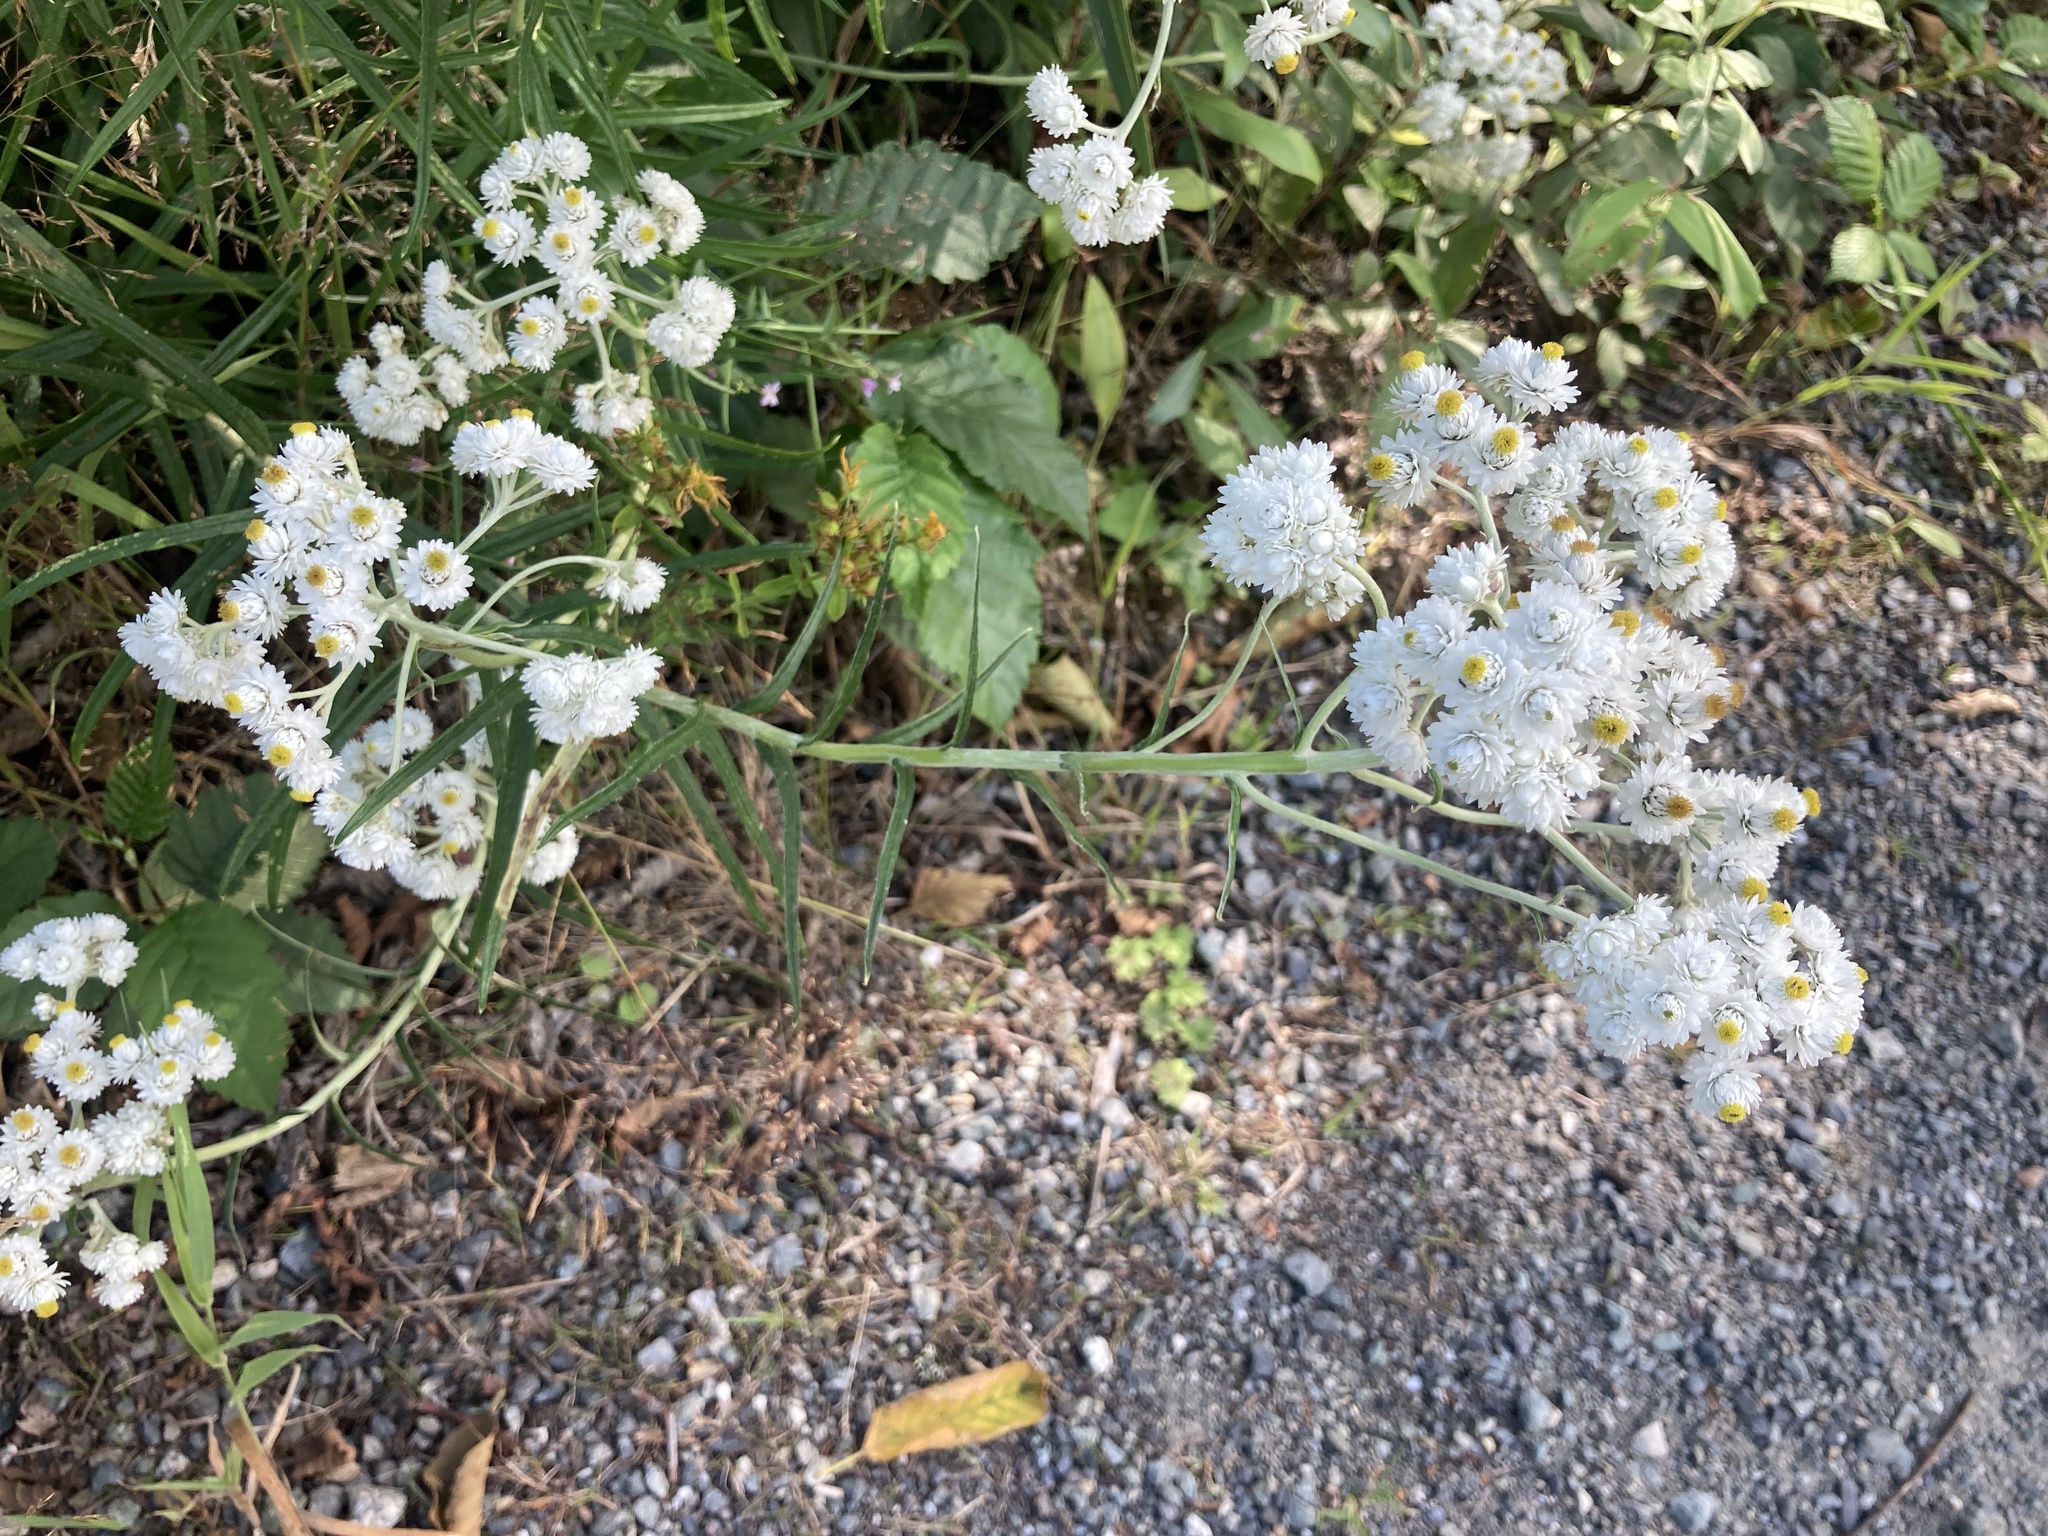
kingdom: Plantae
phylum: Tracheophyta
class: Magnoliopsida
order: Asterales
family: Asteraceae
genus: Anaphalis
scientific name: Anaphalis margaritacea
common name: Pearly everlasting
